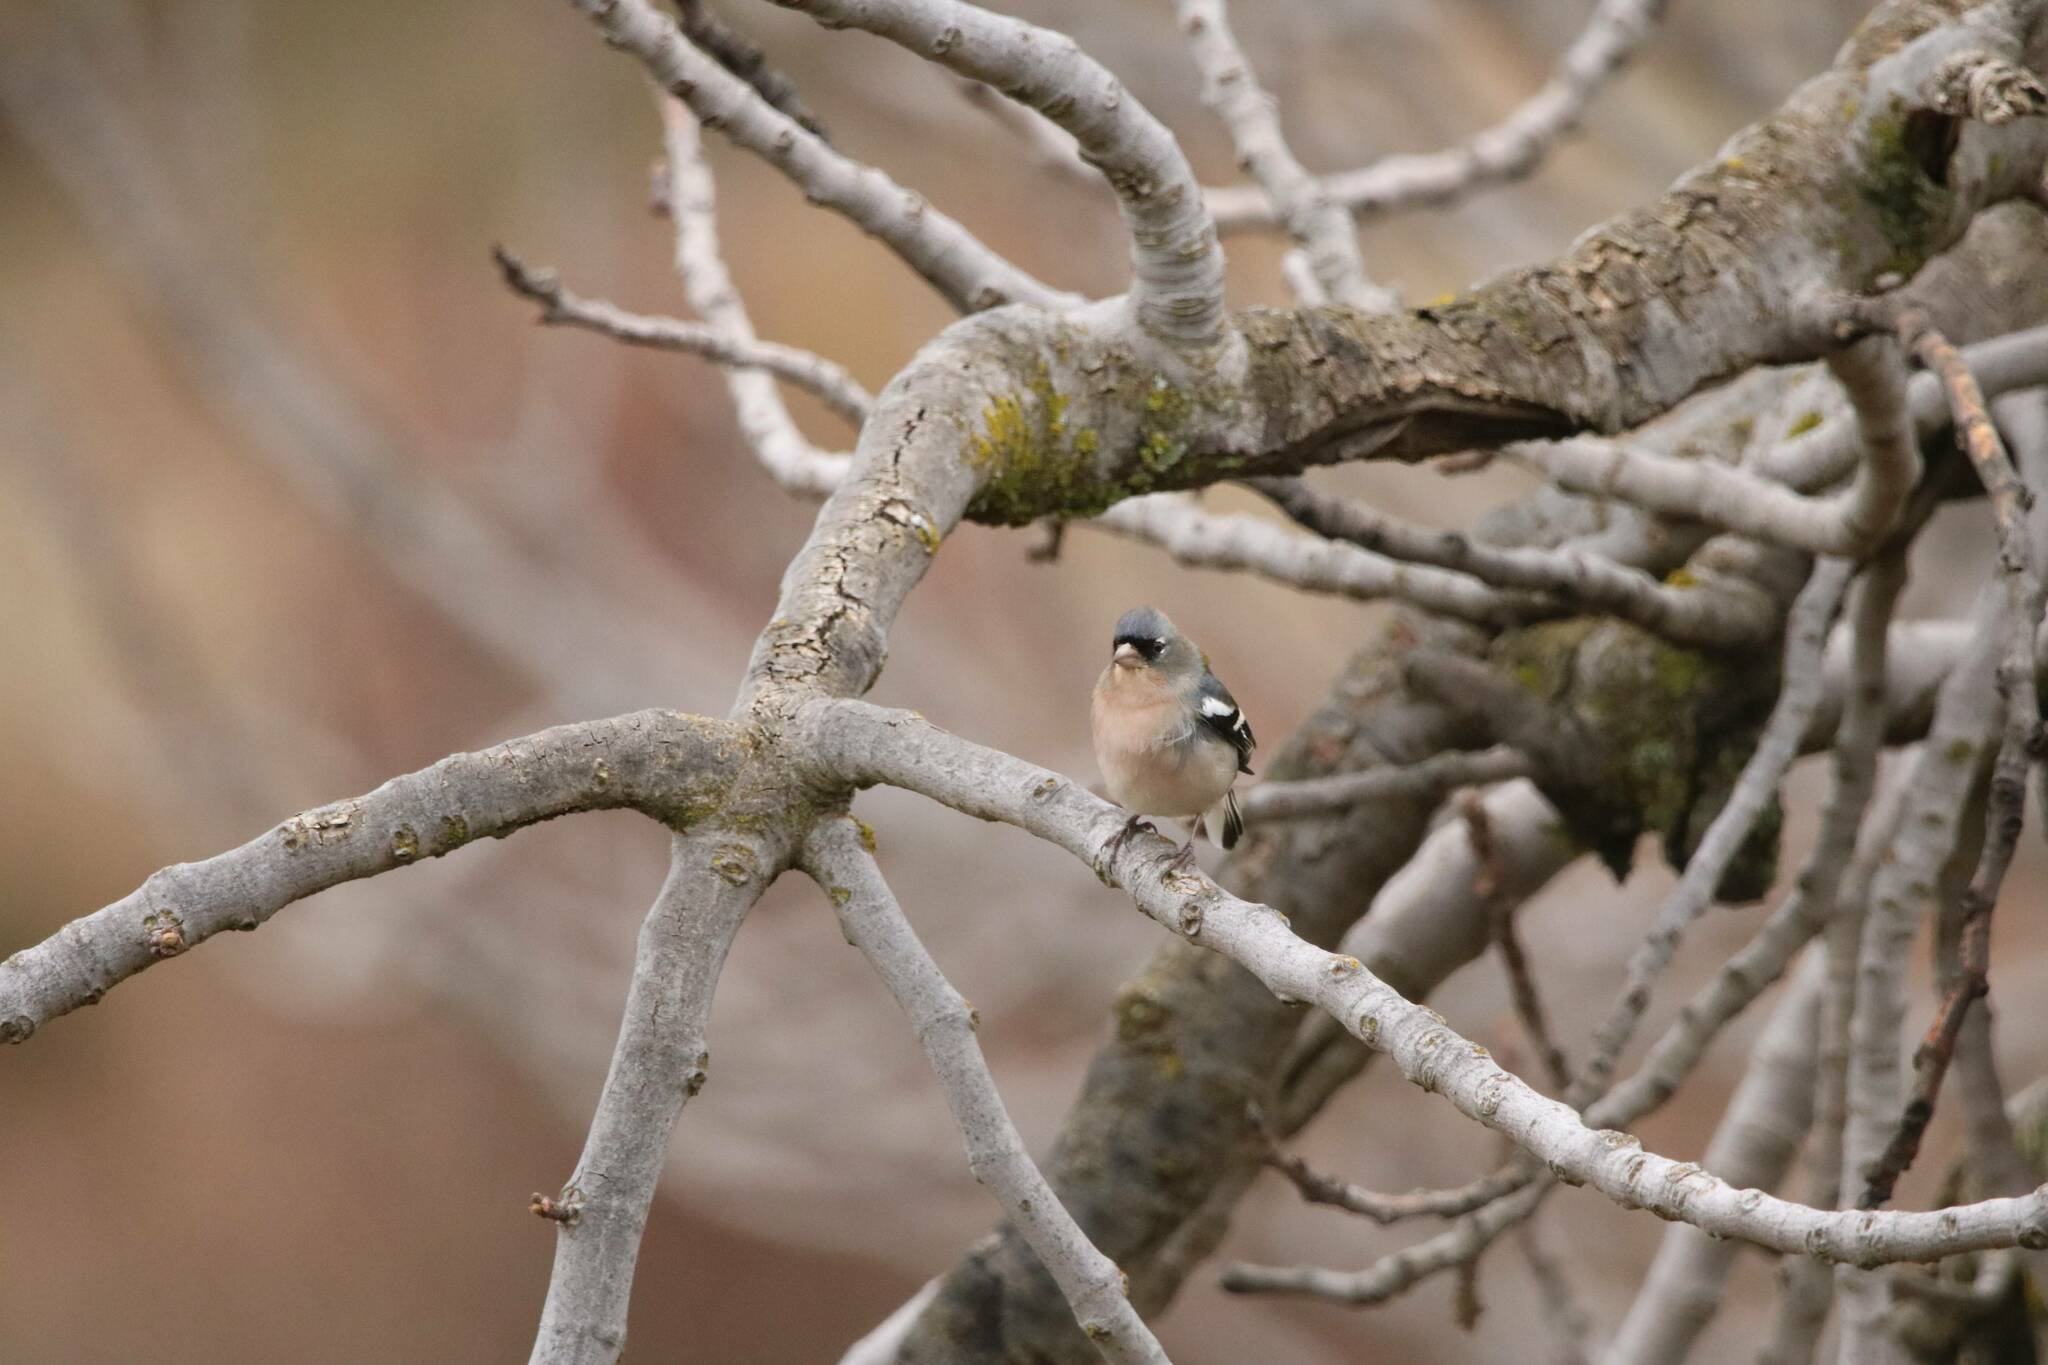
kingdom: Animalia
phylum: Chordata
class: Aves
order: Passeriformes
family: Fringillidae
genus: Fringilla
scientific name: Fringilla spodiogenys
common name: African chaffinch
